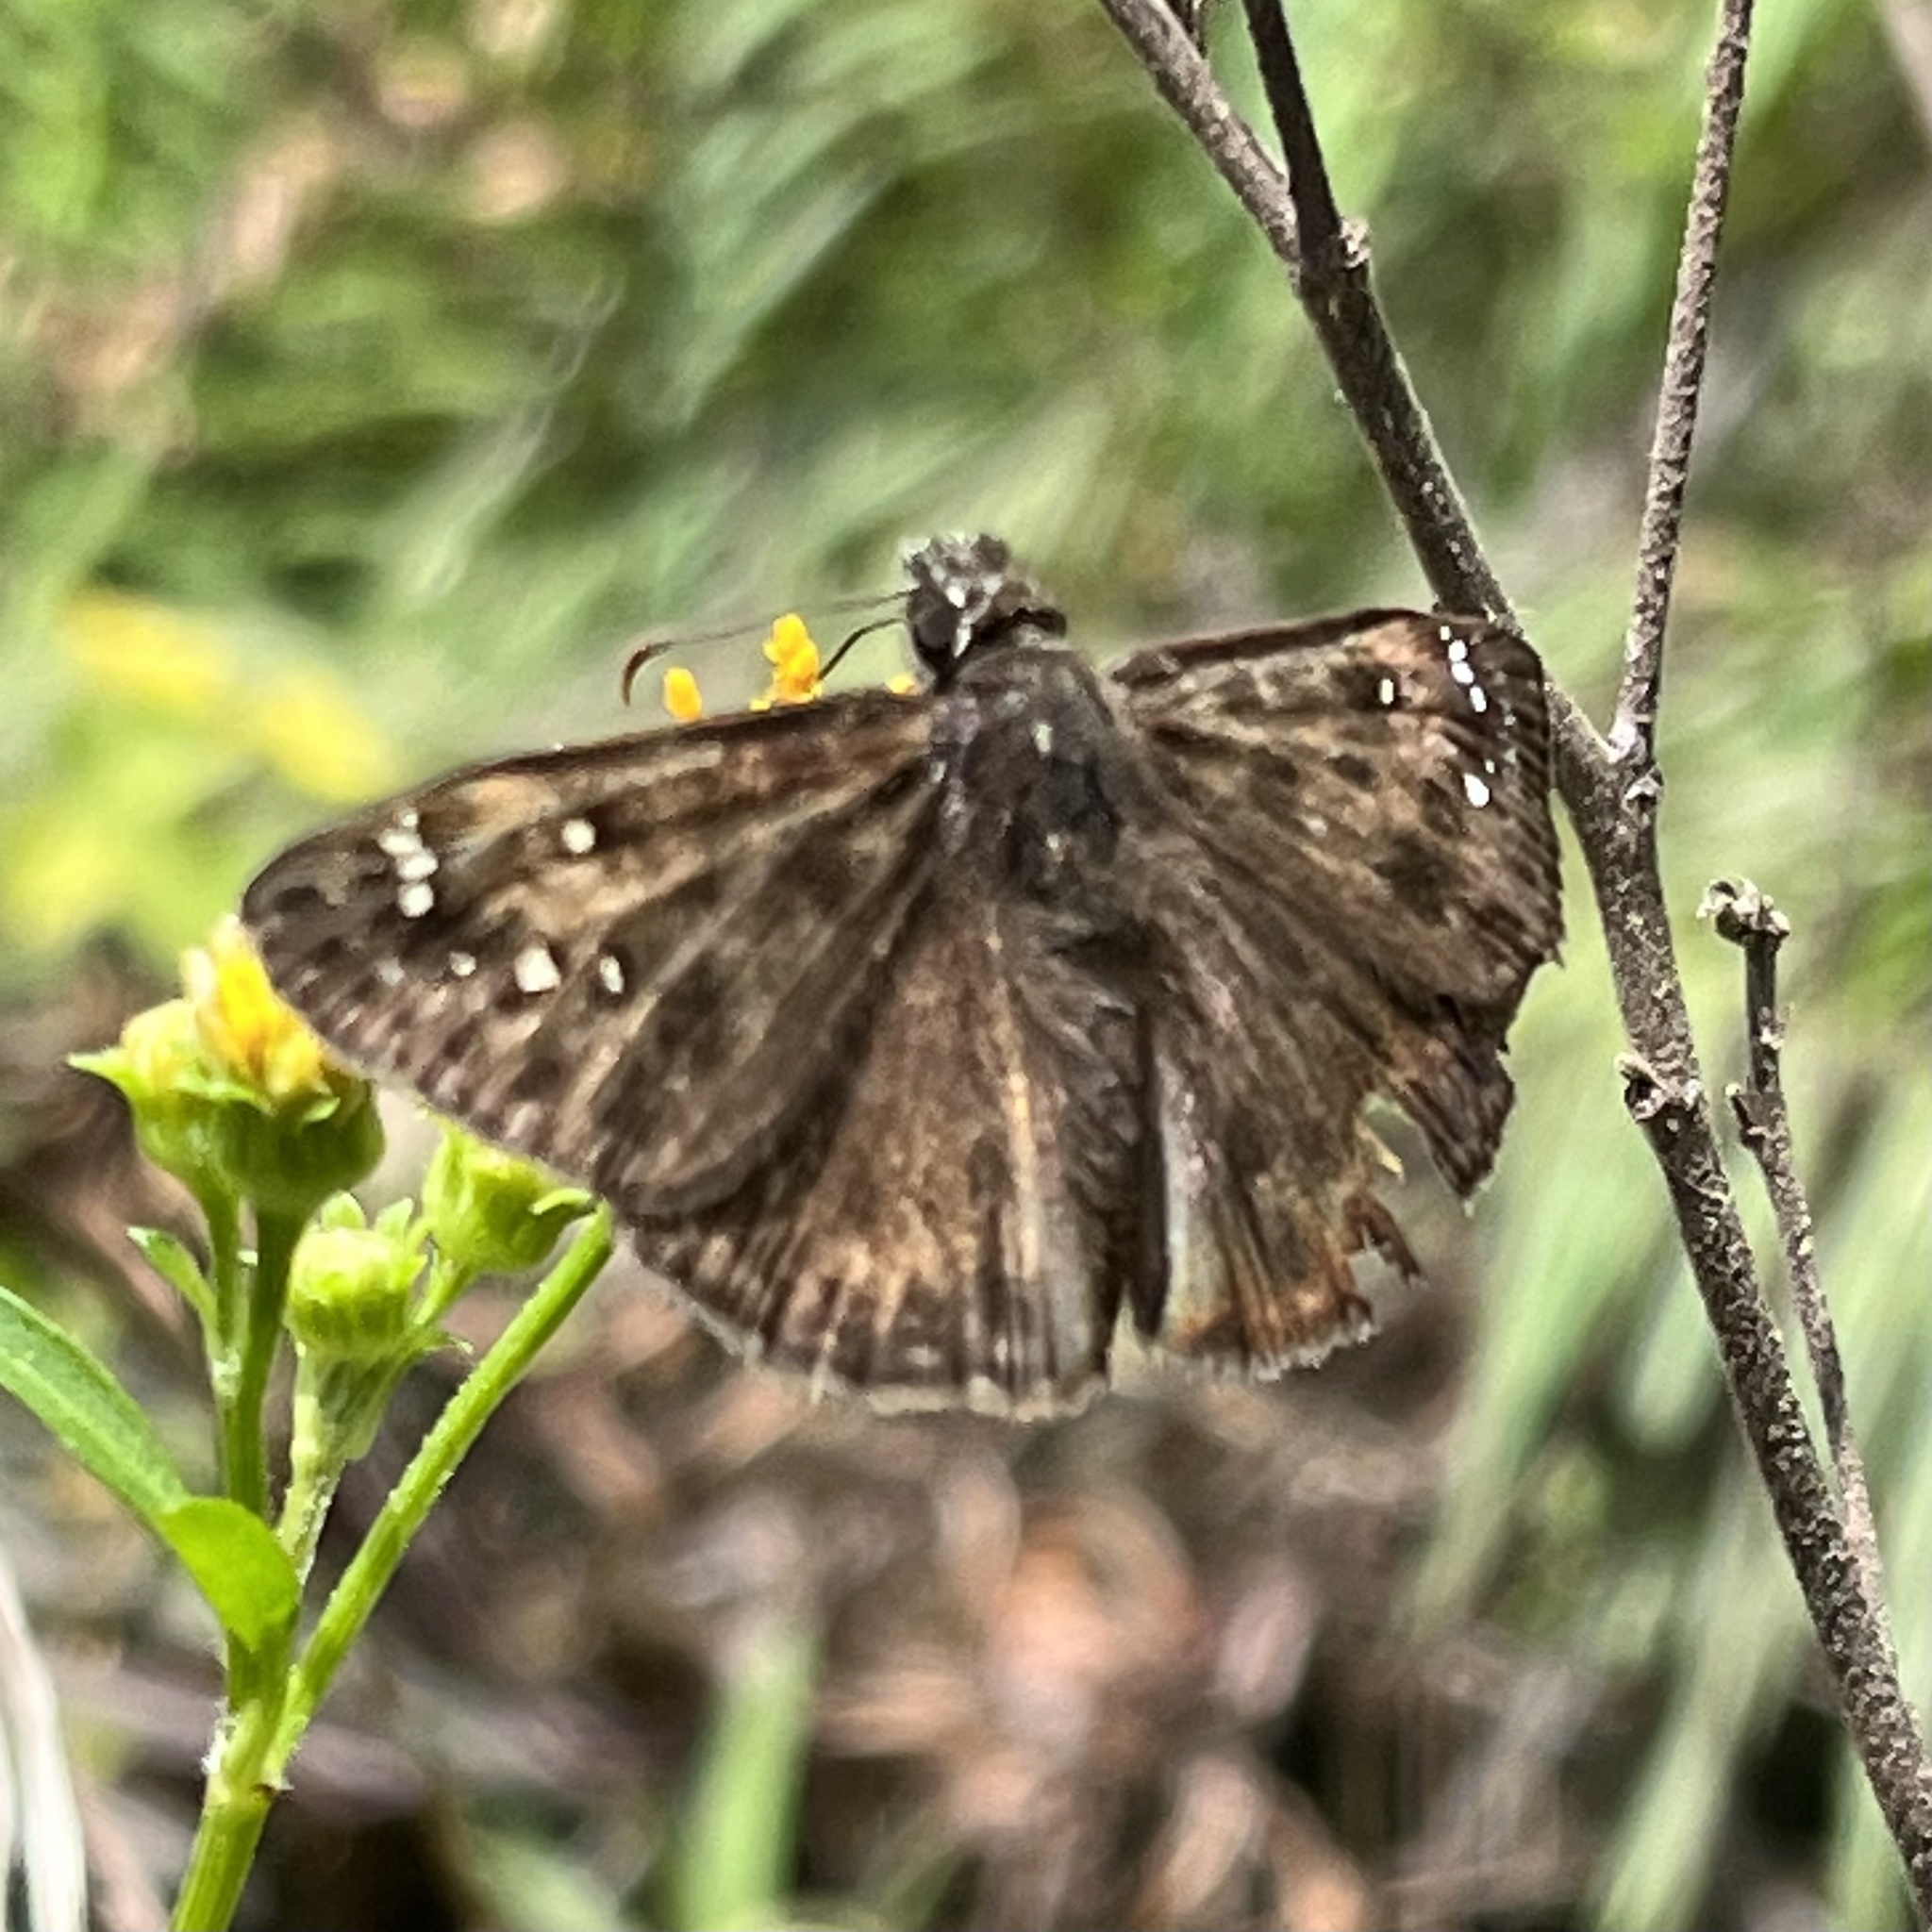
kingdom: Animalia
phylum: Arthropoda
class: Insecta
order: Lepidoptera
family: Hesperiidae
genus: Erynnis
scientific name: Erynnis horatius
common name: Horace's duskywing
